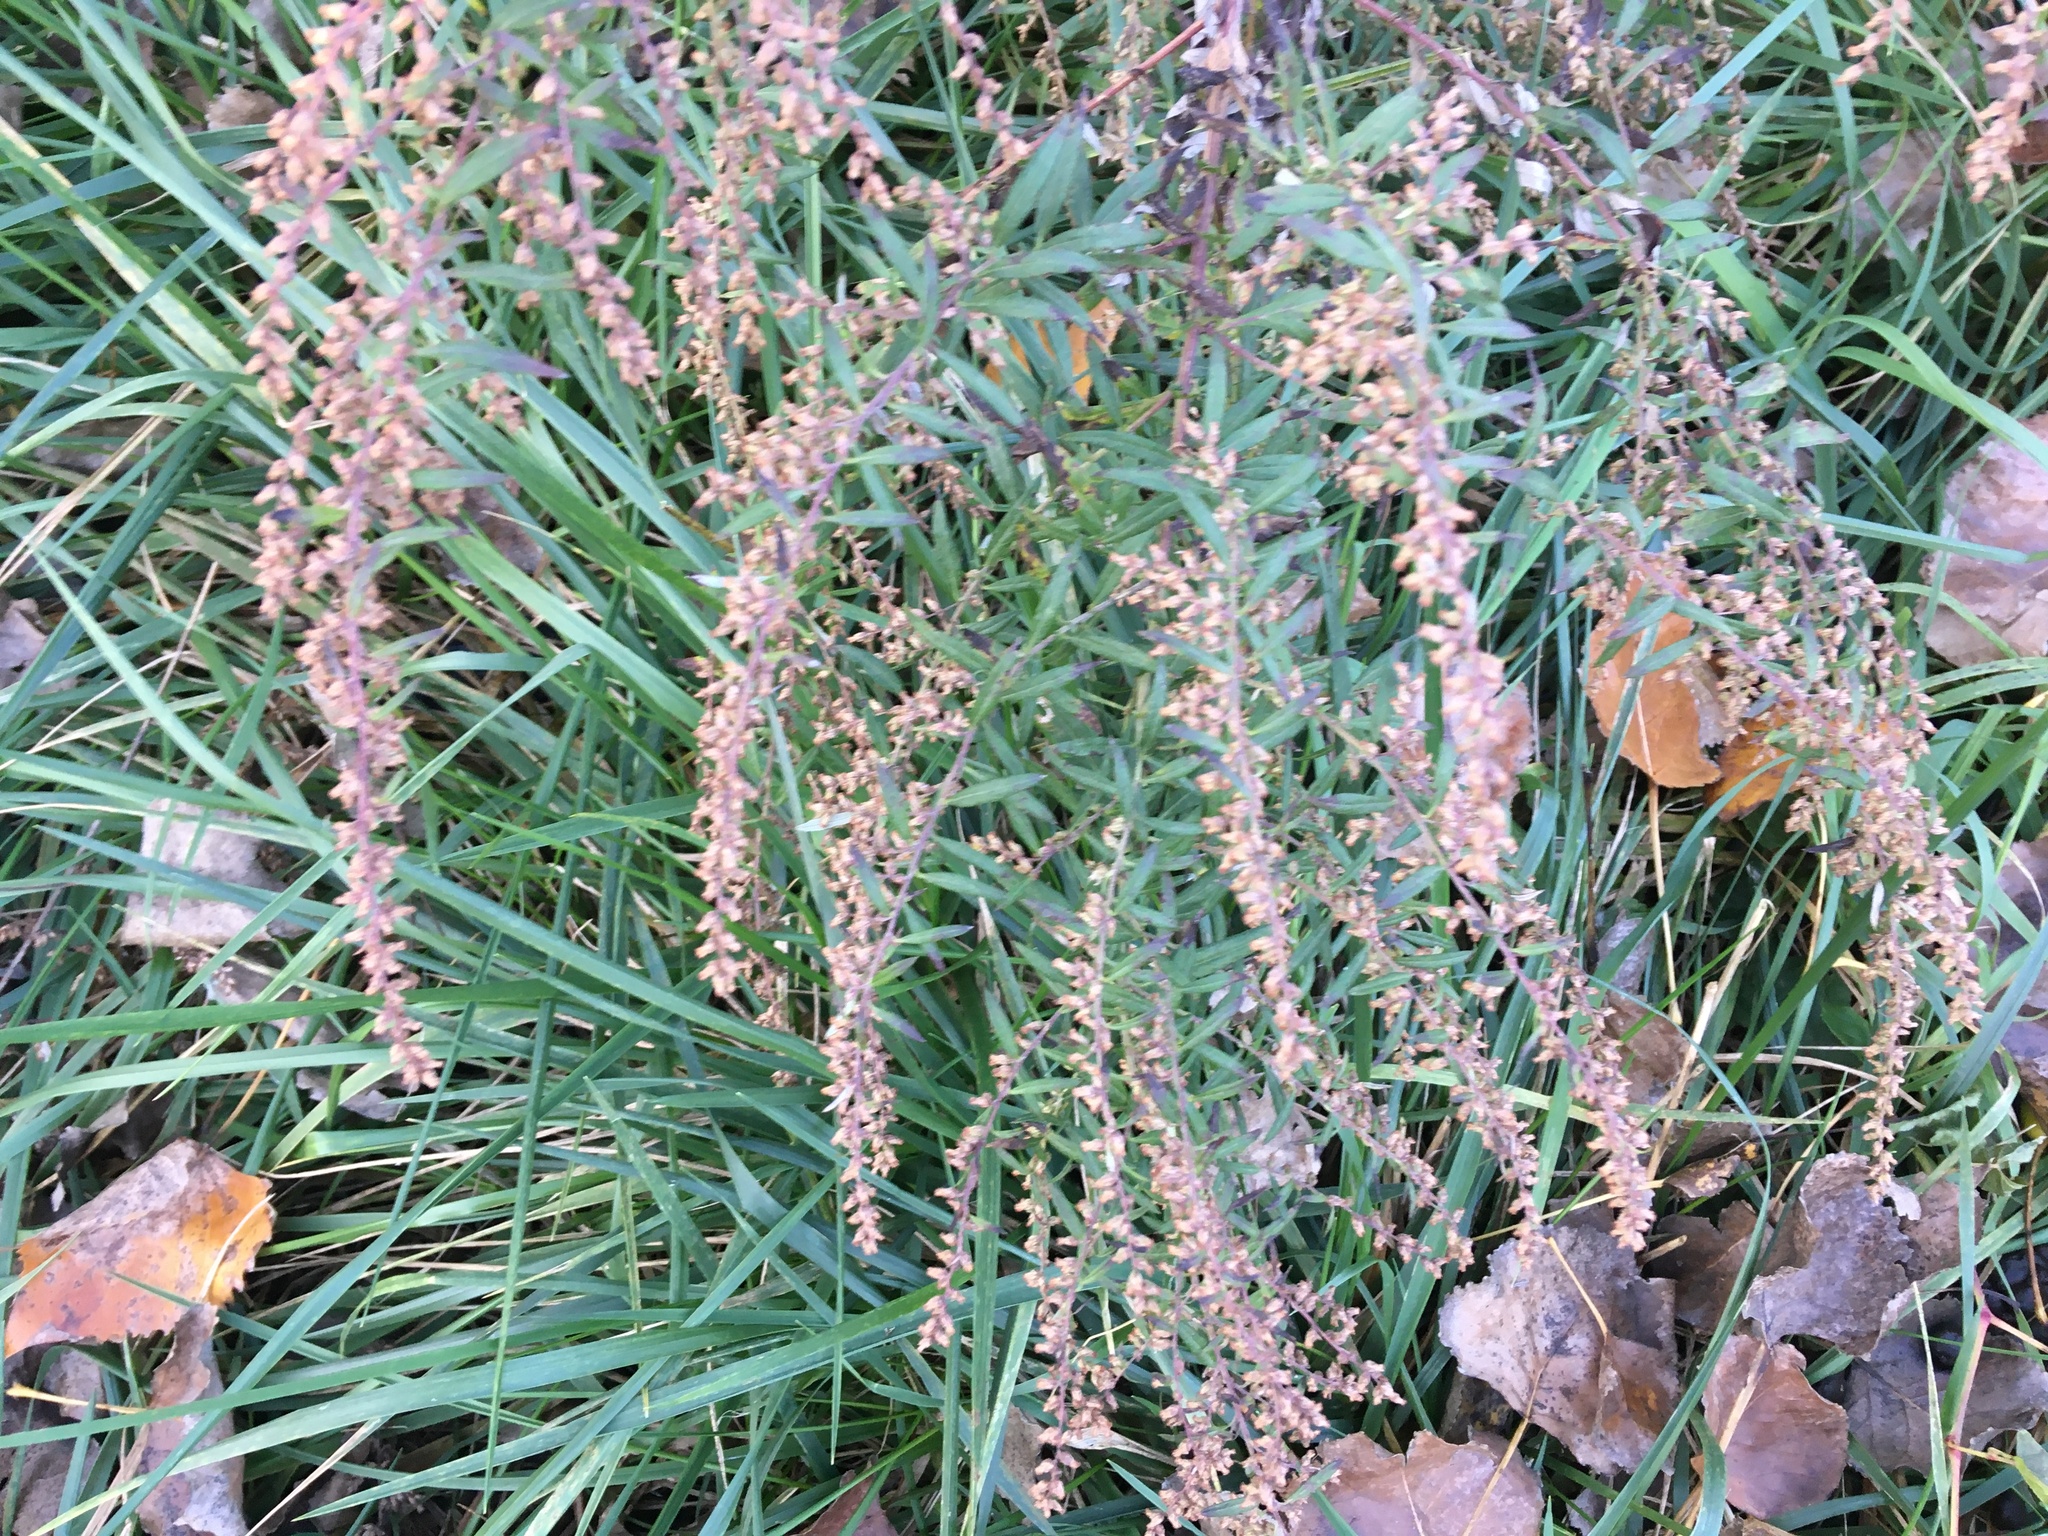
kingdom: Plantae
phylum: Tracheophyta
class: Magnoliopsida
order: Asterales
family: Asteraceae
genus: Artemisia
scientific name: Artemisia vulgaris
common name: Mugwort
